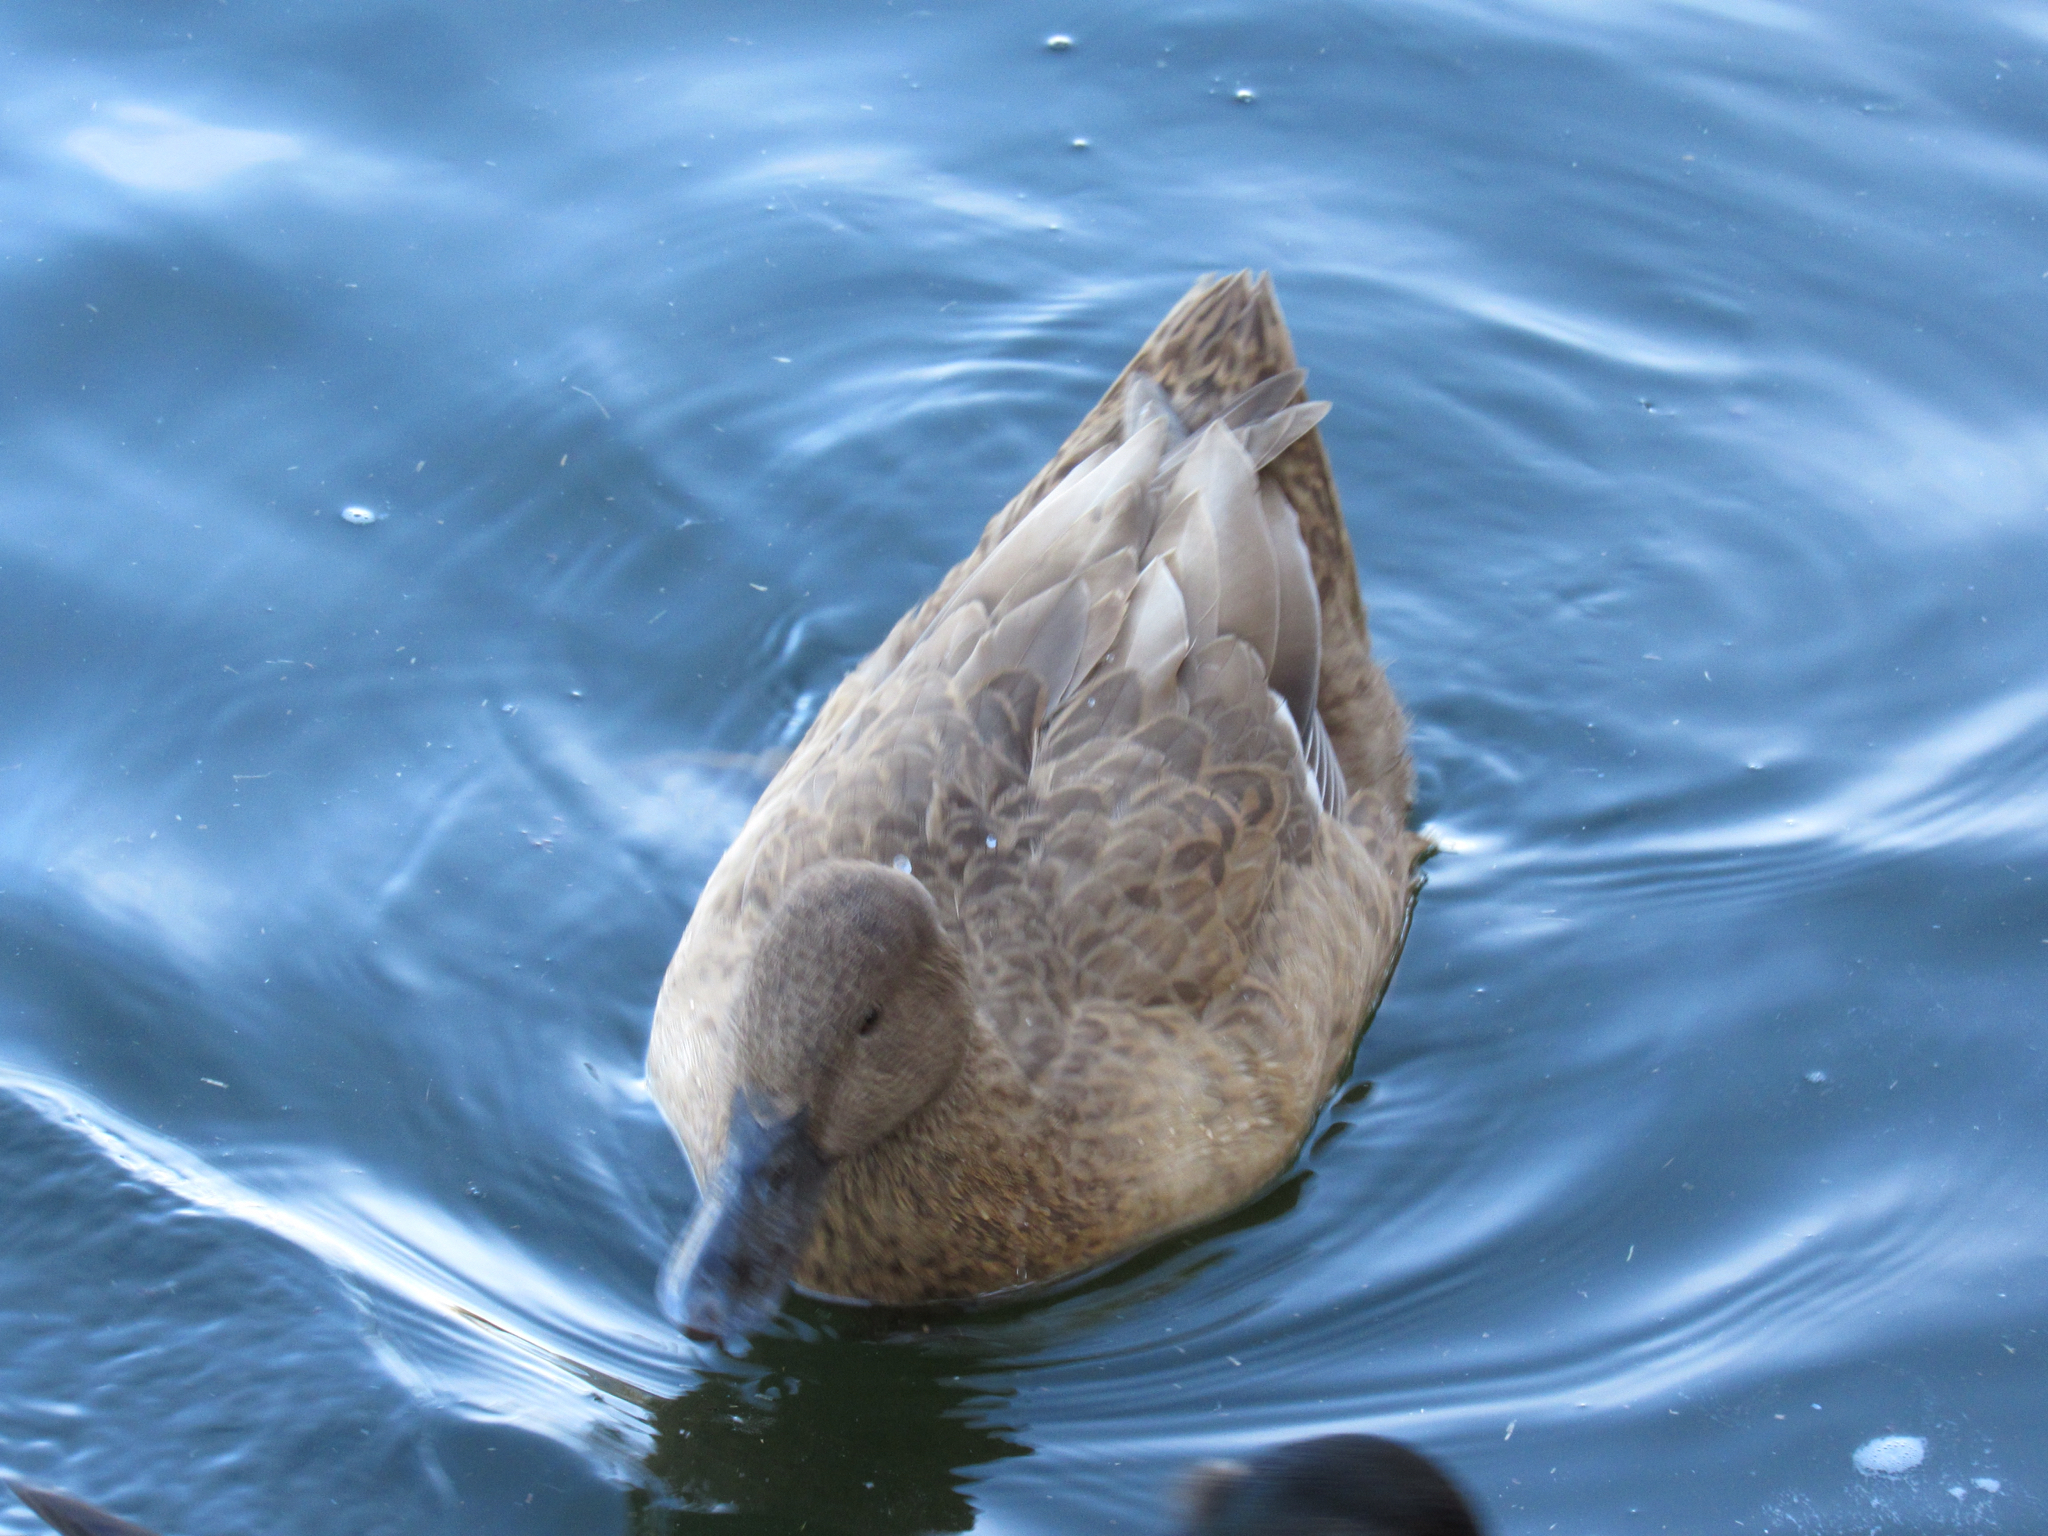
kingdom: Animalia
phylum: Chordata
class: Aves
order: Anseriformes
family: Anatidae
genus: Anas
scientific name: Anas platyrhynchos
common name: Mallard
